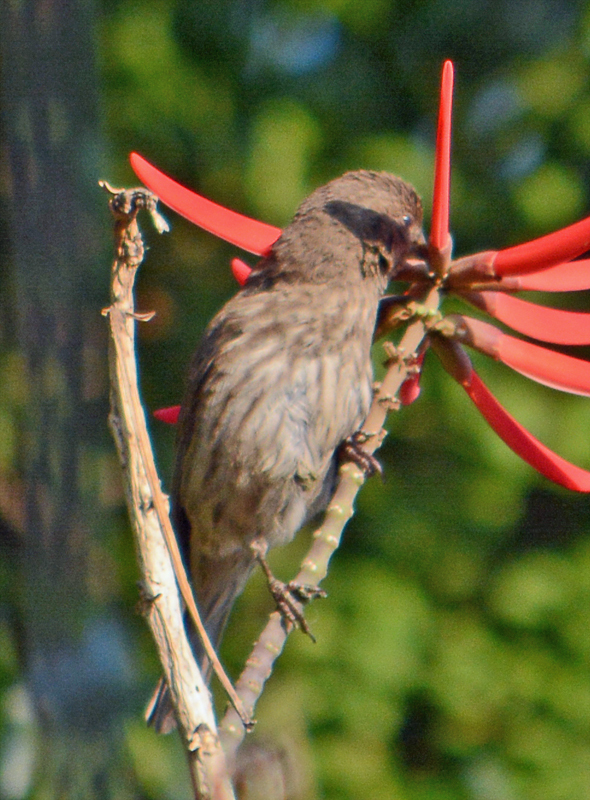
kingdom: Animalia
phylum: Chordata
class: Aves
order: Passeriformes
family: Fringillidae
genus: Haemorhous
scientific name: Haemorhous mexicanus
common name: House finch
